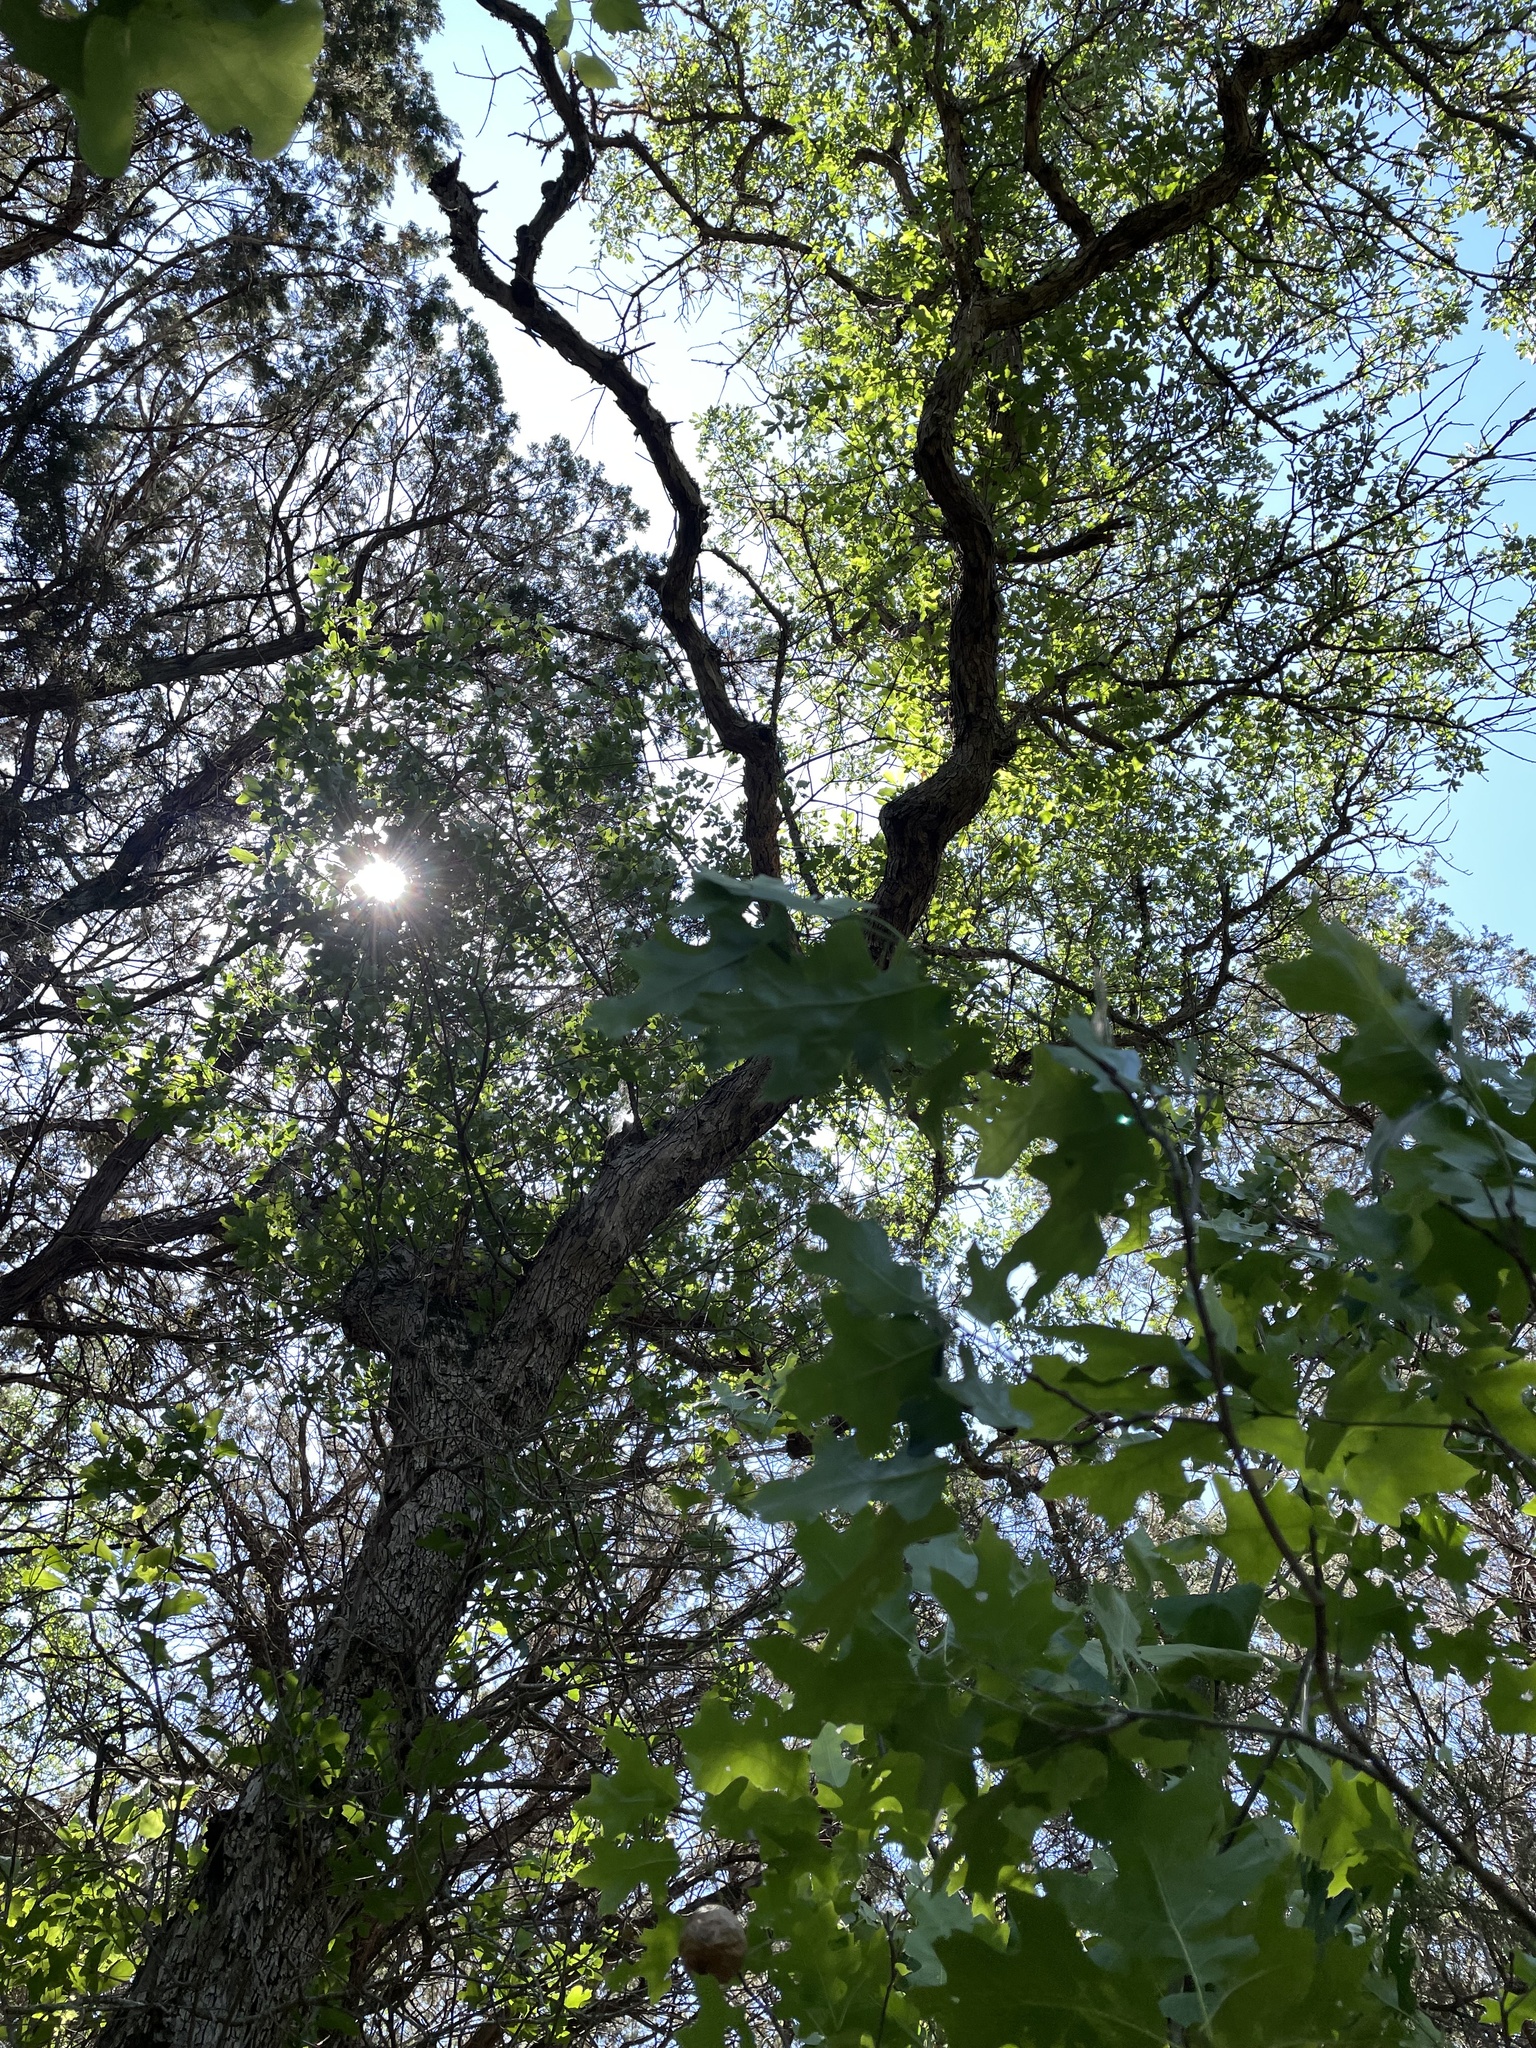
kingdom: Plantae
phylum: Tracheophyta
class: Magnoliopsida
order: Fagales
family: Fagaceae
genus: Quercus
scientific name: Quercus sinuata
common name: Durand oak
